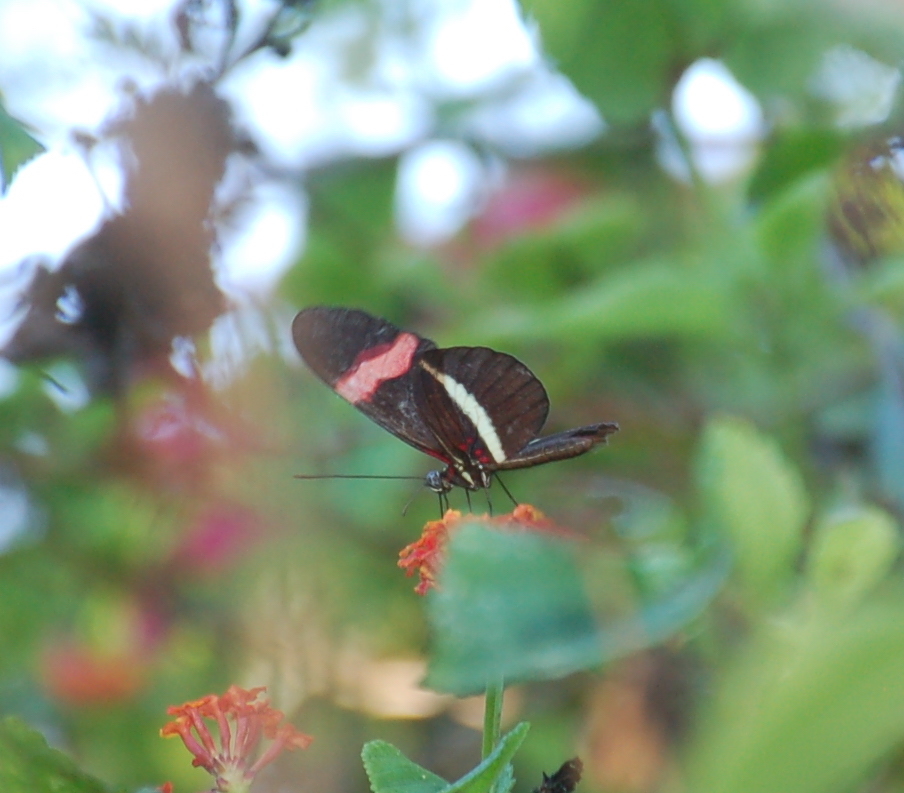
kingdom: Animalia
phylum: Arthropoda
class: Insecta
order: Lepidoptera
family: Nymphalidae
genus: Heliconius
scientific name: Heliconius erato
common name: Common patch longwing
